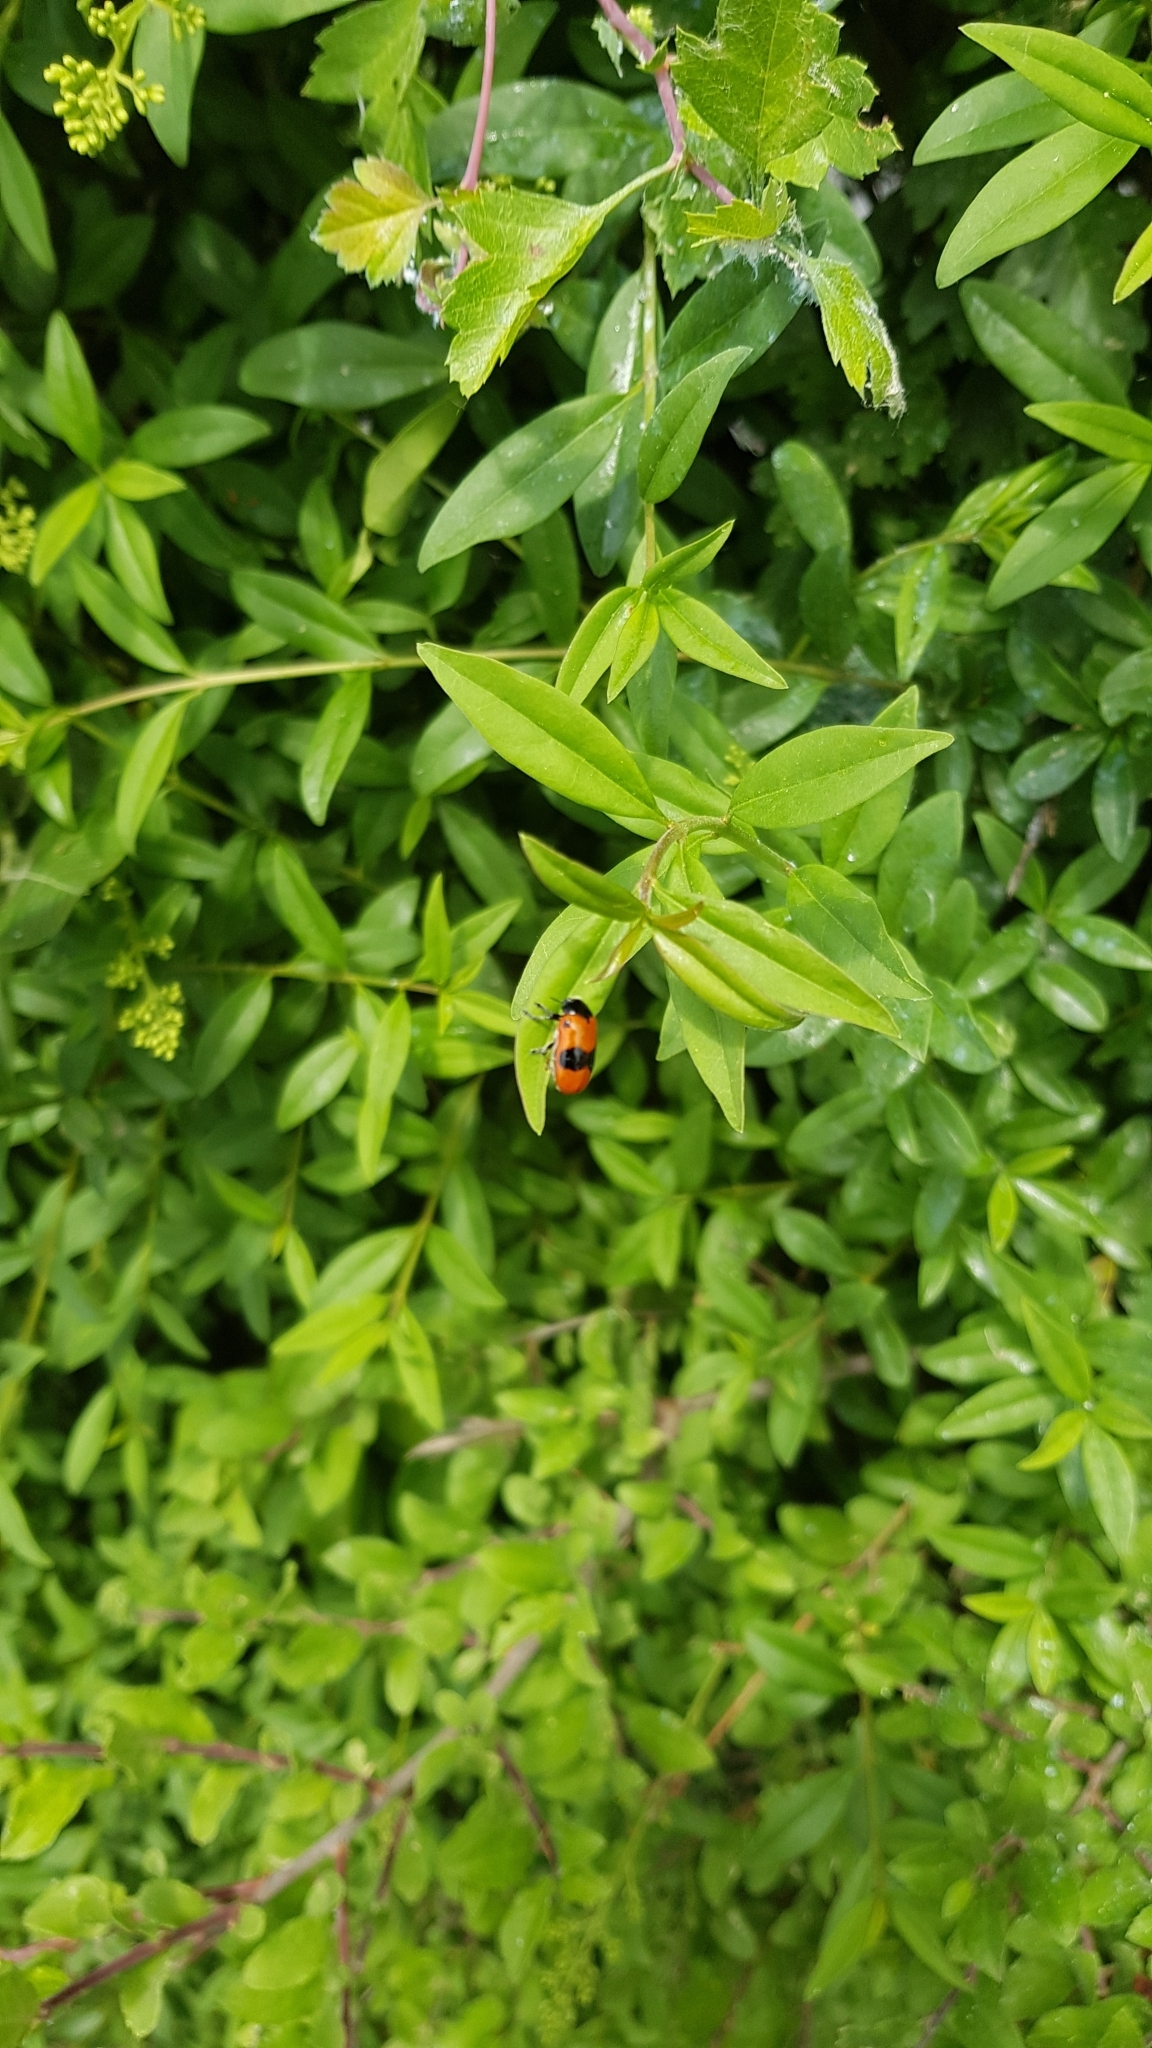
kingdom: Animalia
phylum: Arthropoda
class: Insecta
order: Coleoptera
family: Chrysomelidae
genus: Clytra
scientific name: Clytra laeviuscula
